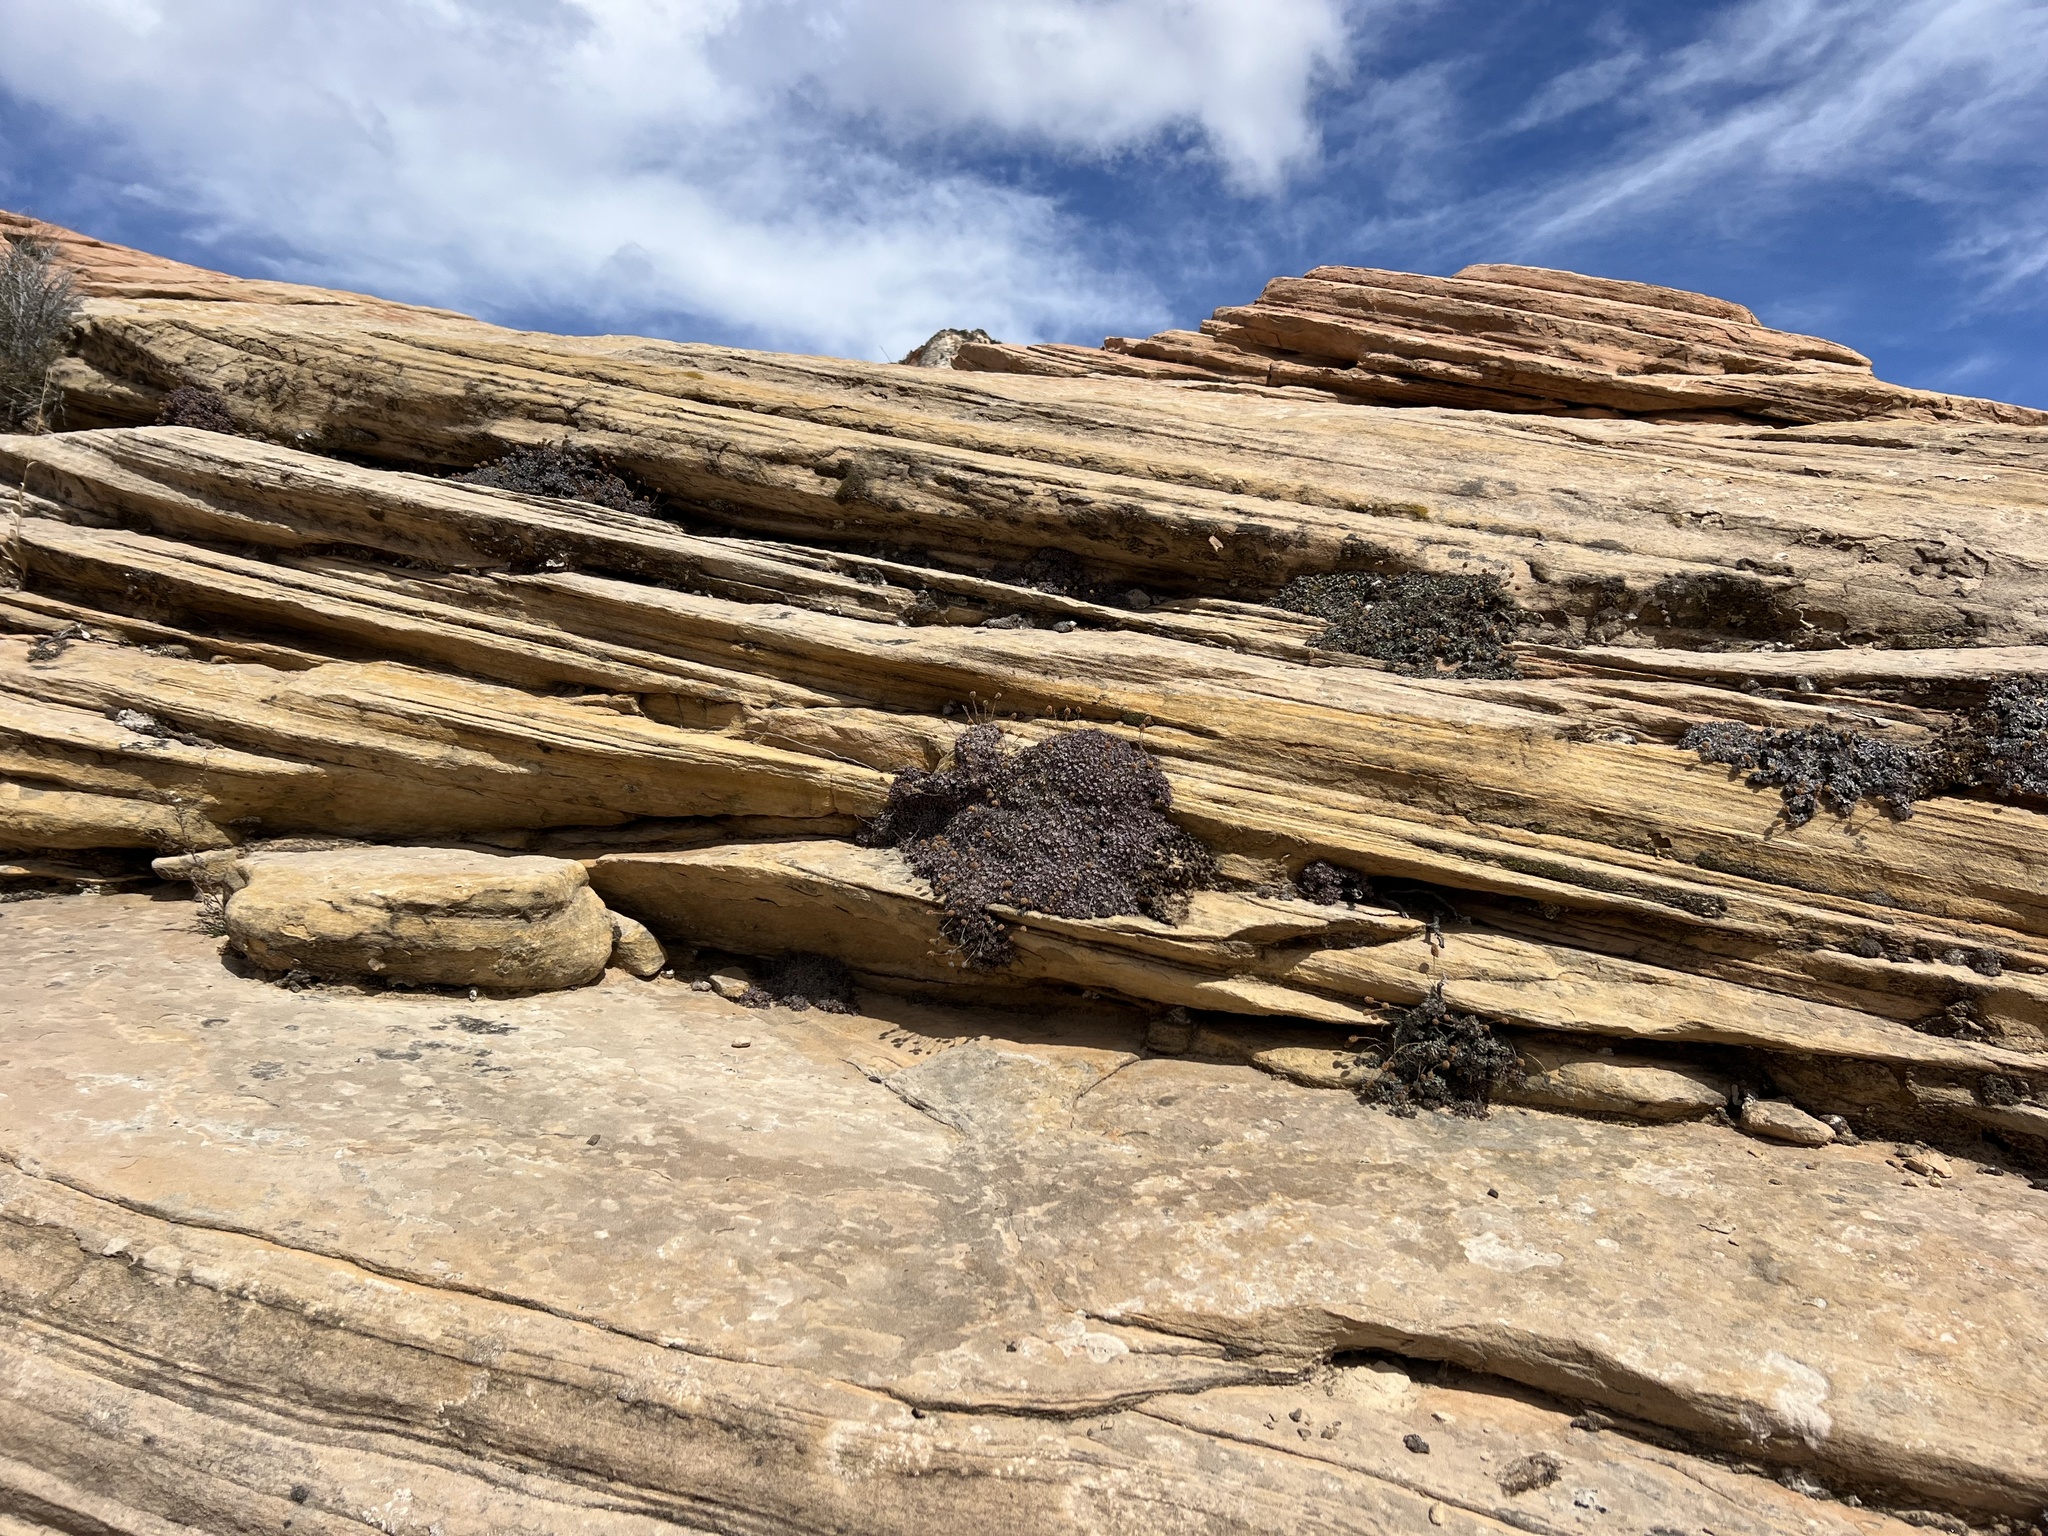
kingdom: Plantae
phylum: Tracheophyta
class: Magnoliopsida
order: Rosales
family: Rosaceae
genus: Petrophytum
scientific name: Petrophytum caespitosum
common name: Mat rockspirea
